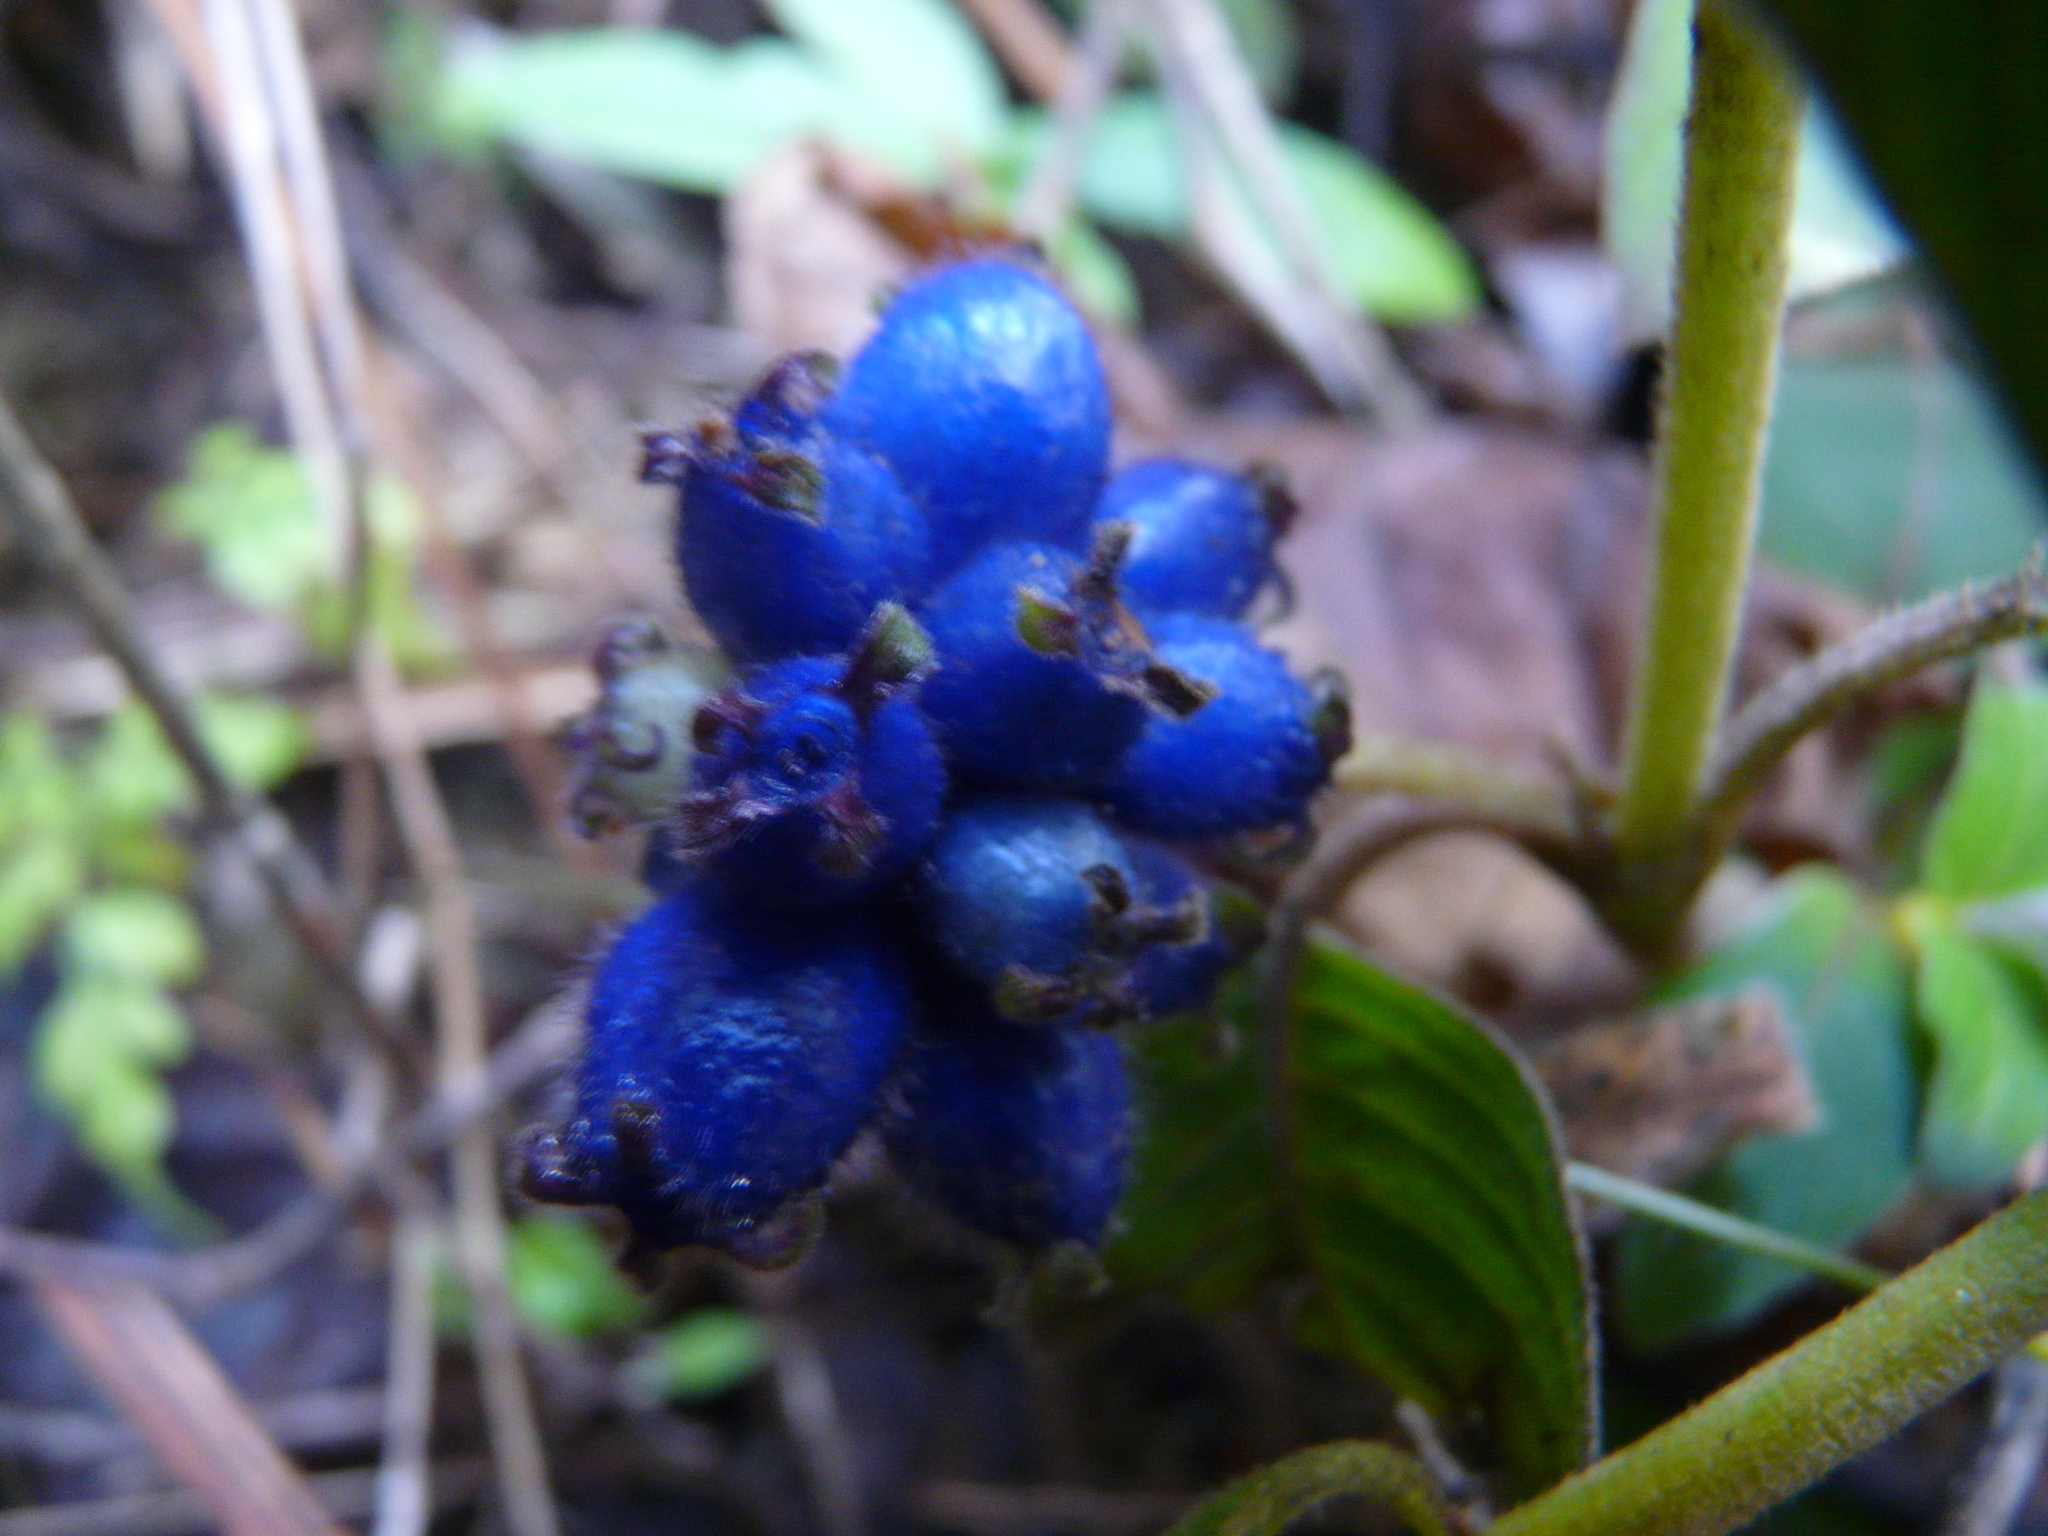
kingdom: Plantae
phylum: Tracheophyta
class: Magnoliopsida
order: Gentianales
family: Rubiaceae
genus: Coccocypselum
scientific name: Coccocypselum hirsutum
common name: Yerba de guava
